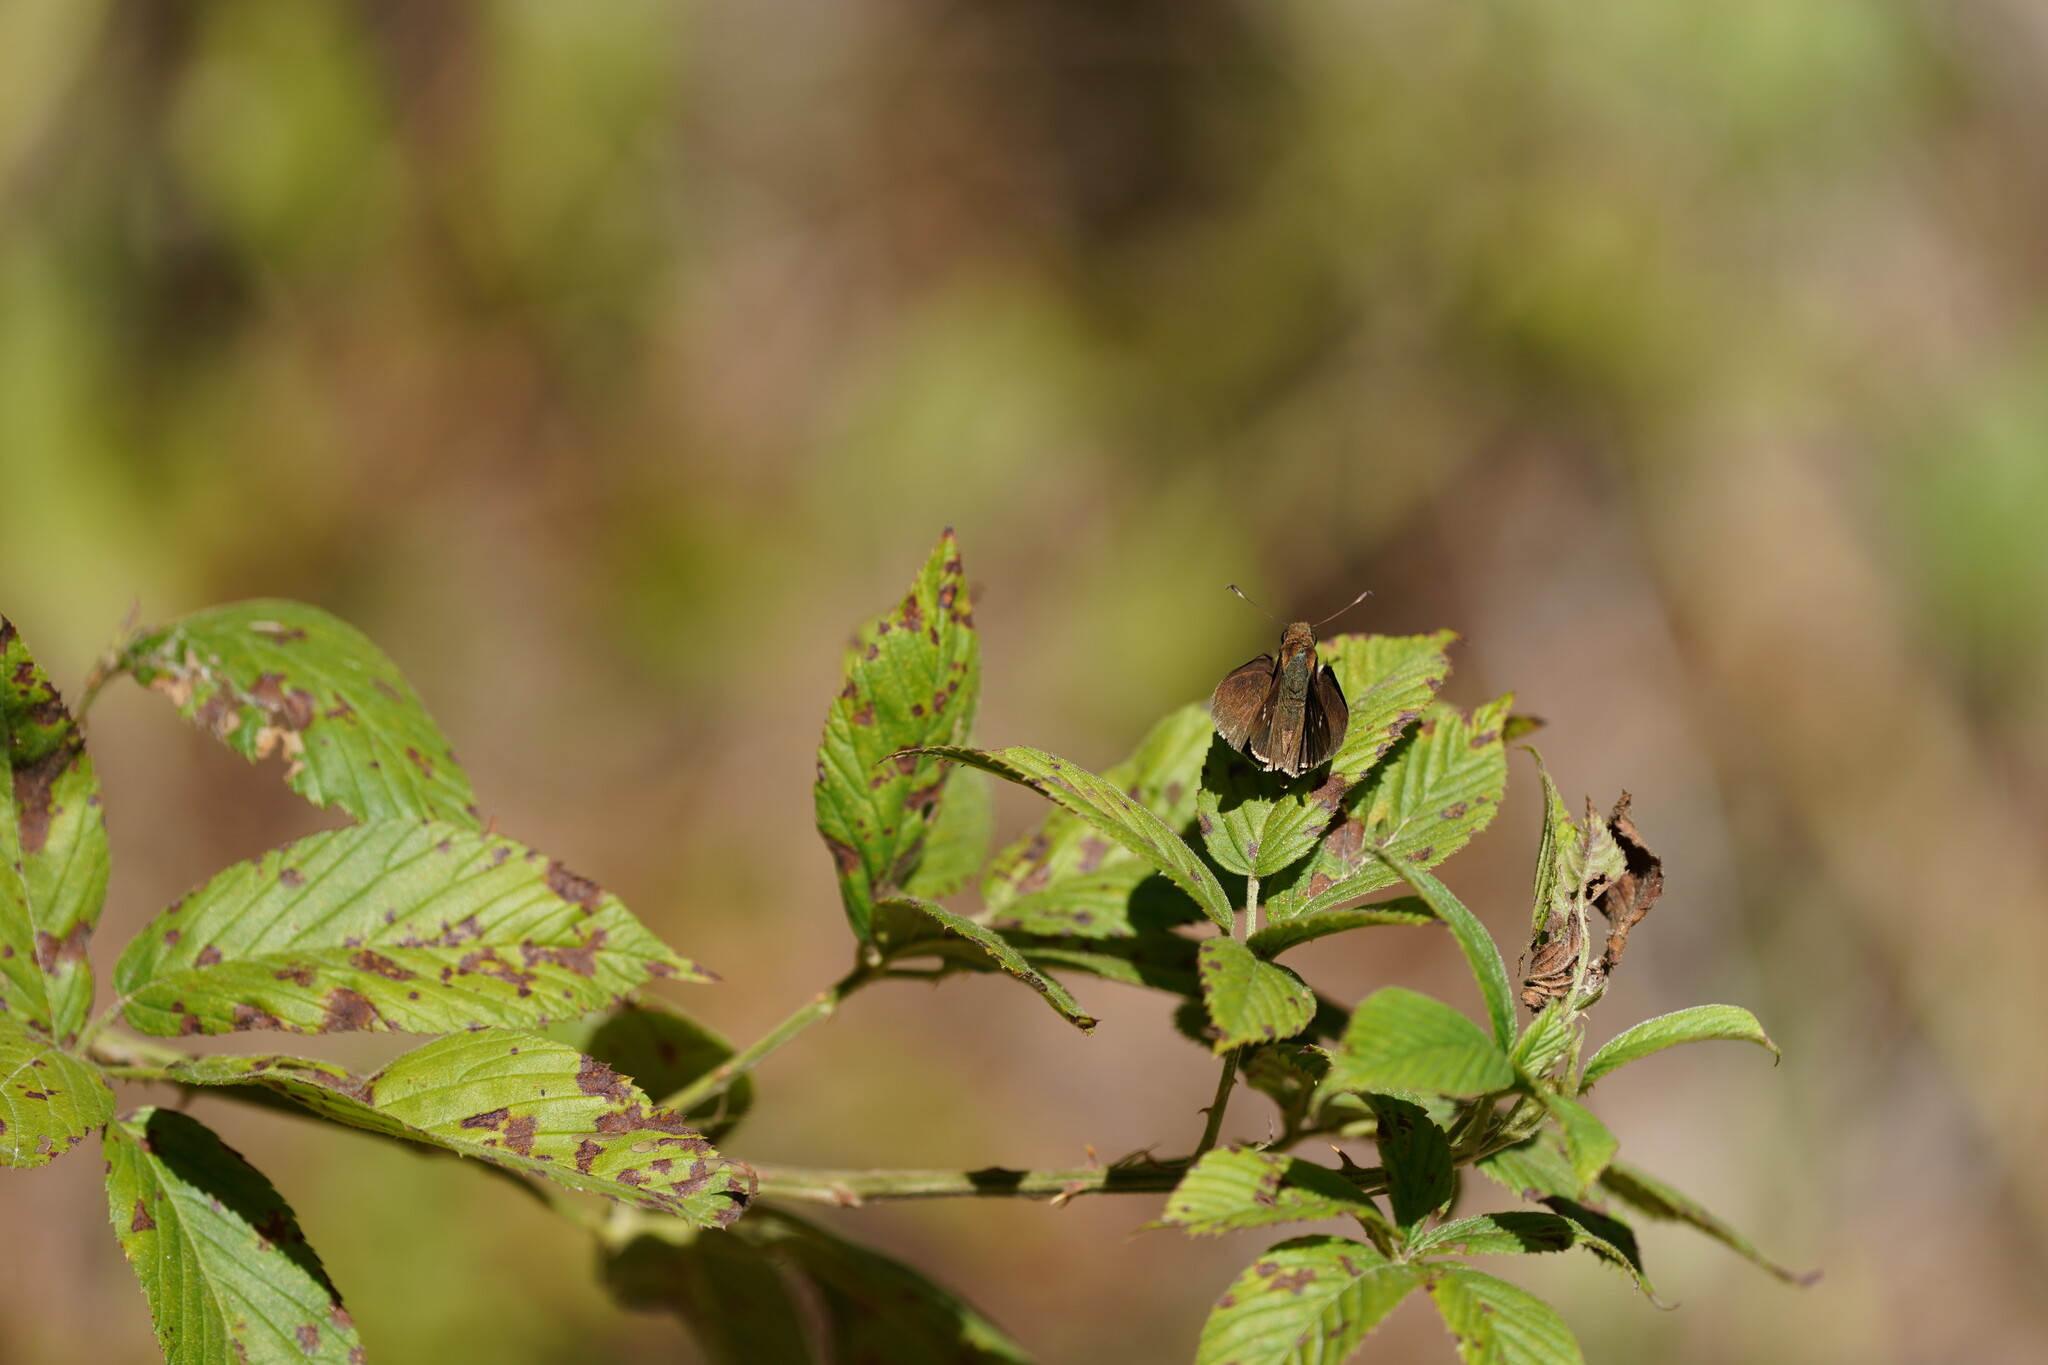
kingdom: Animalia
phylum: Arthropoda
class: Insecta
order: Lepidoptera
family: Hesperiidae
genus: Lerema
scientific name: Lerema accius
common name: Clouded skipper
